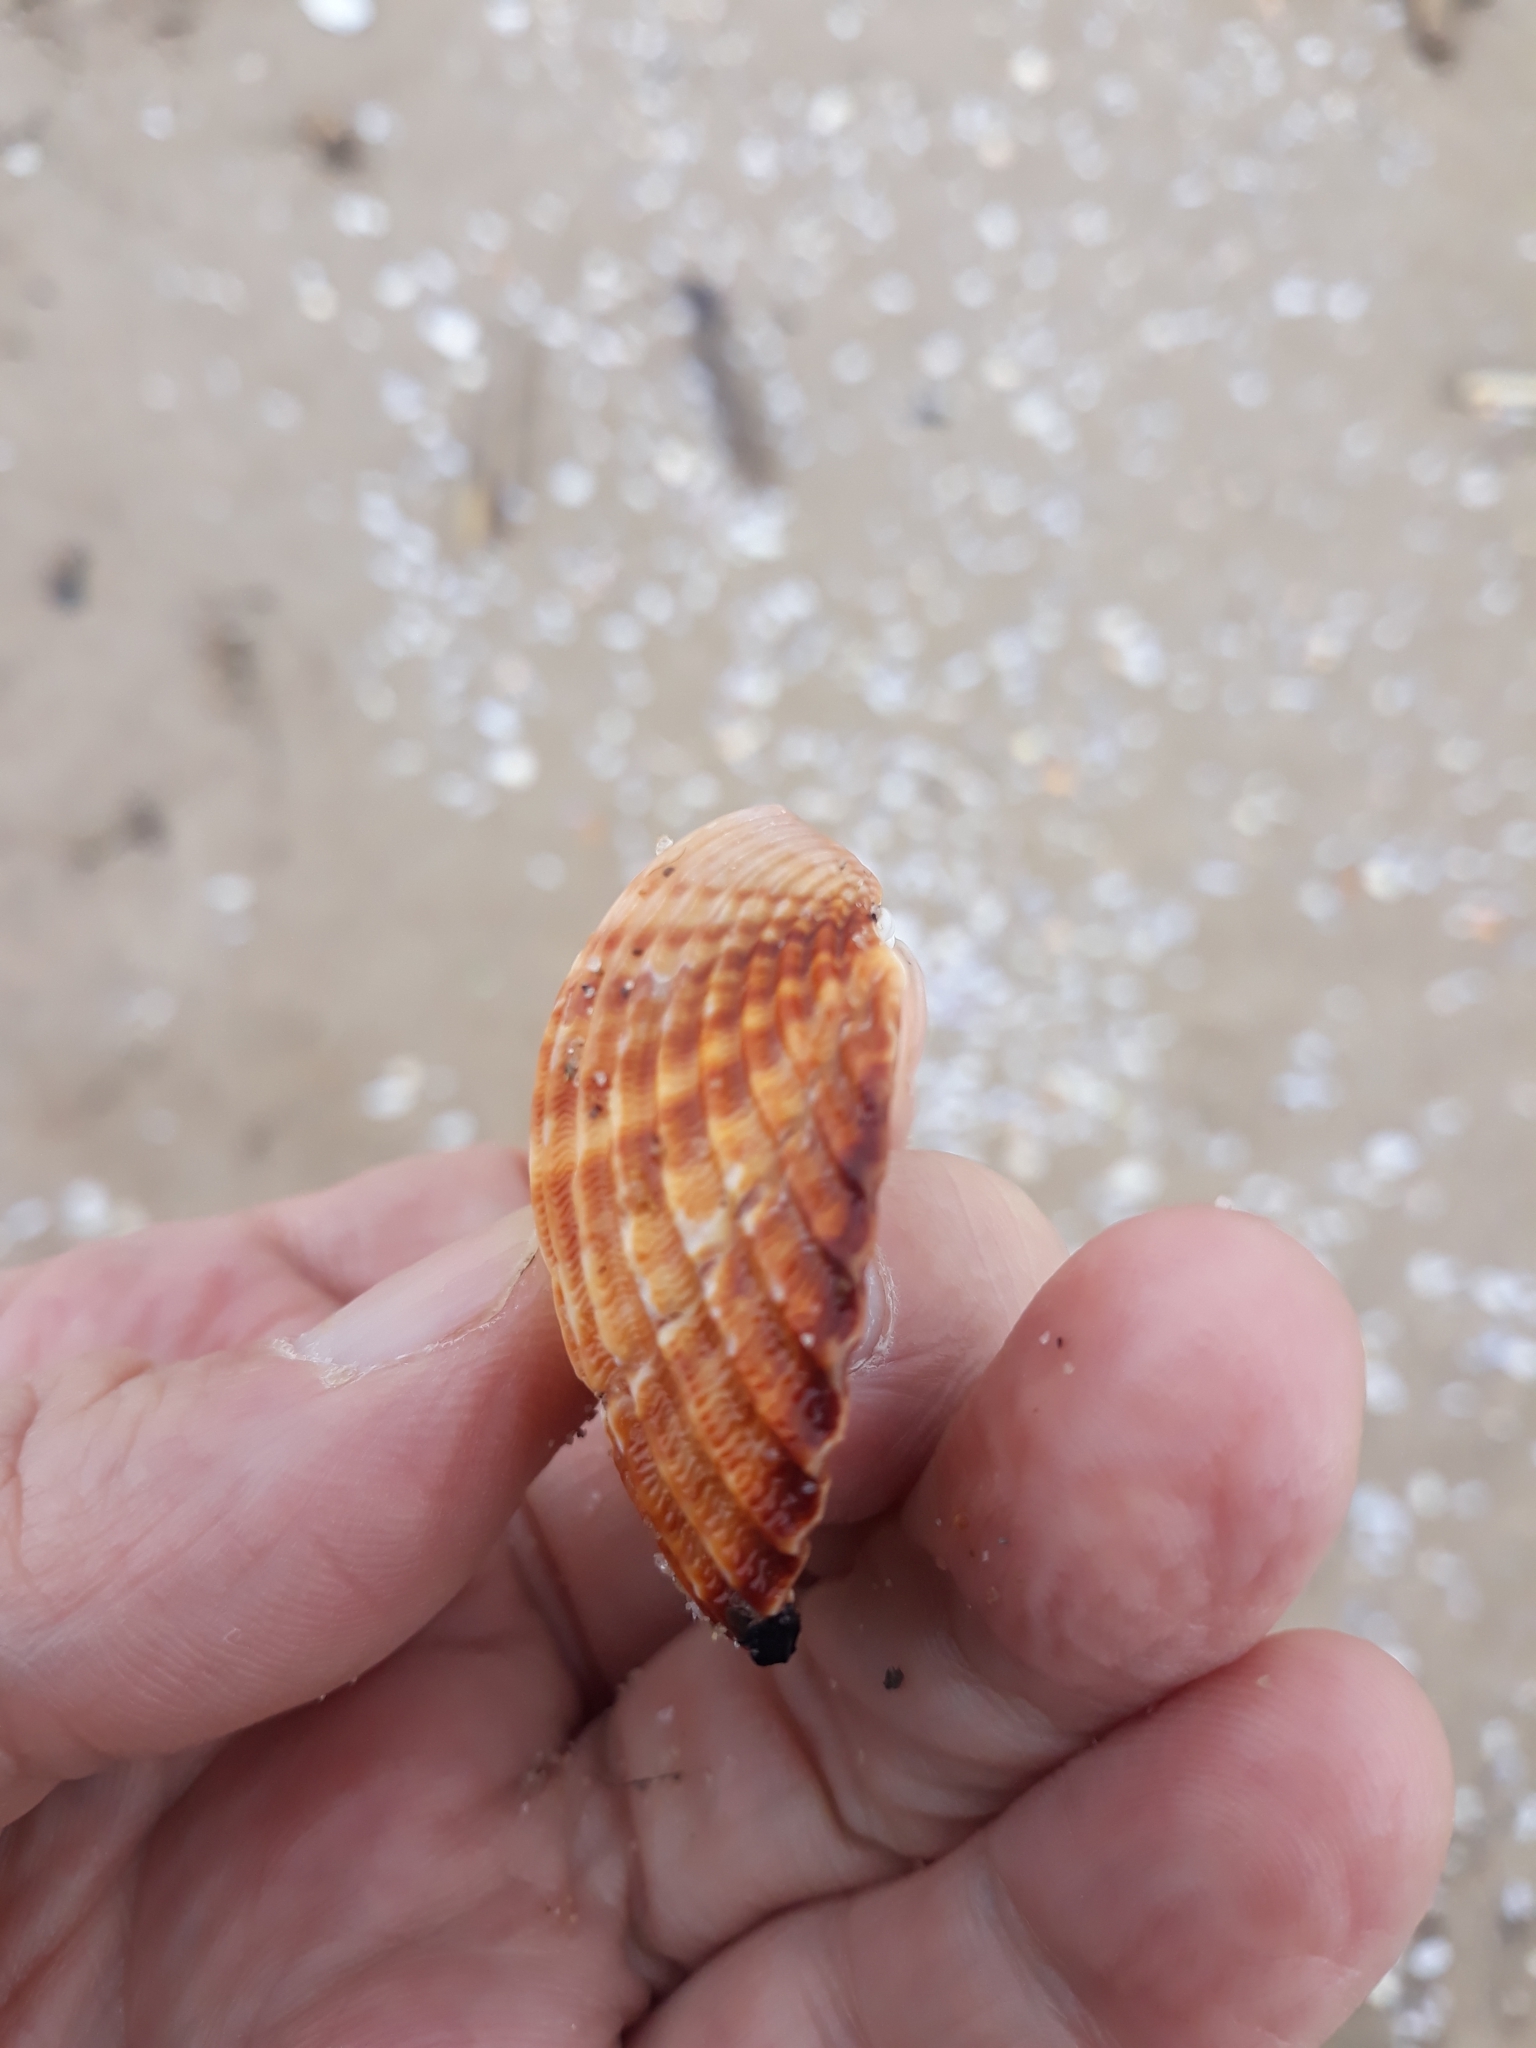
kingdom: Animalia
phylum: Mollusca
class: Bivalvia
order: Cardiida
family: Cardiidae
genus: Acanthocardia
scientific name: Acanthocardia tuberculata
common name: Rough cockle
